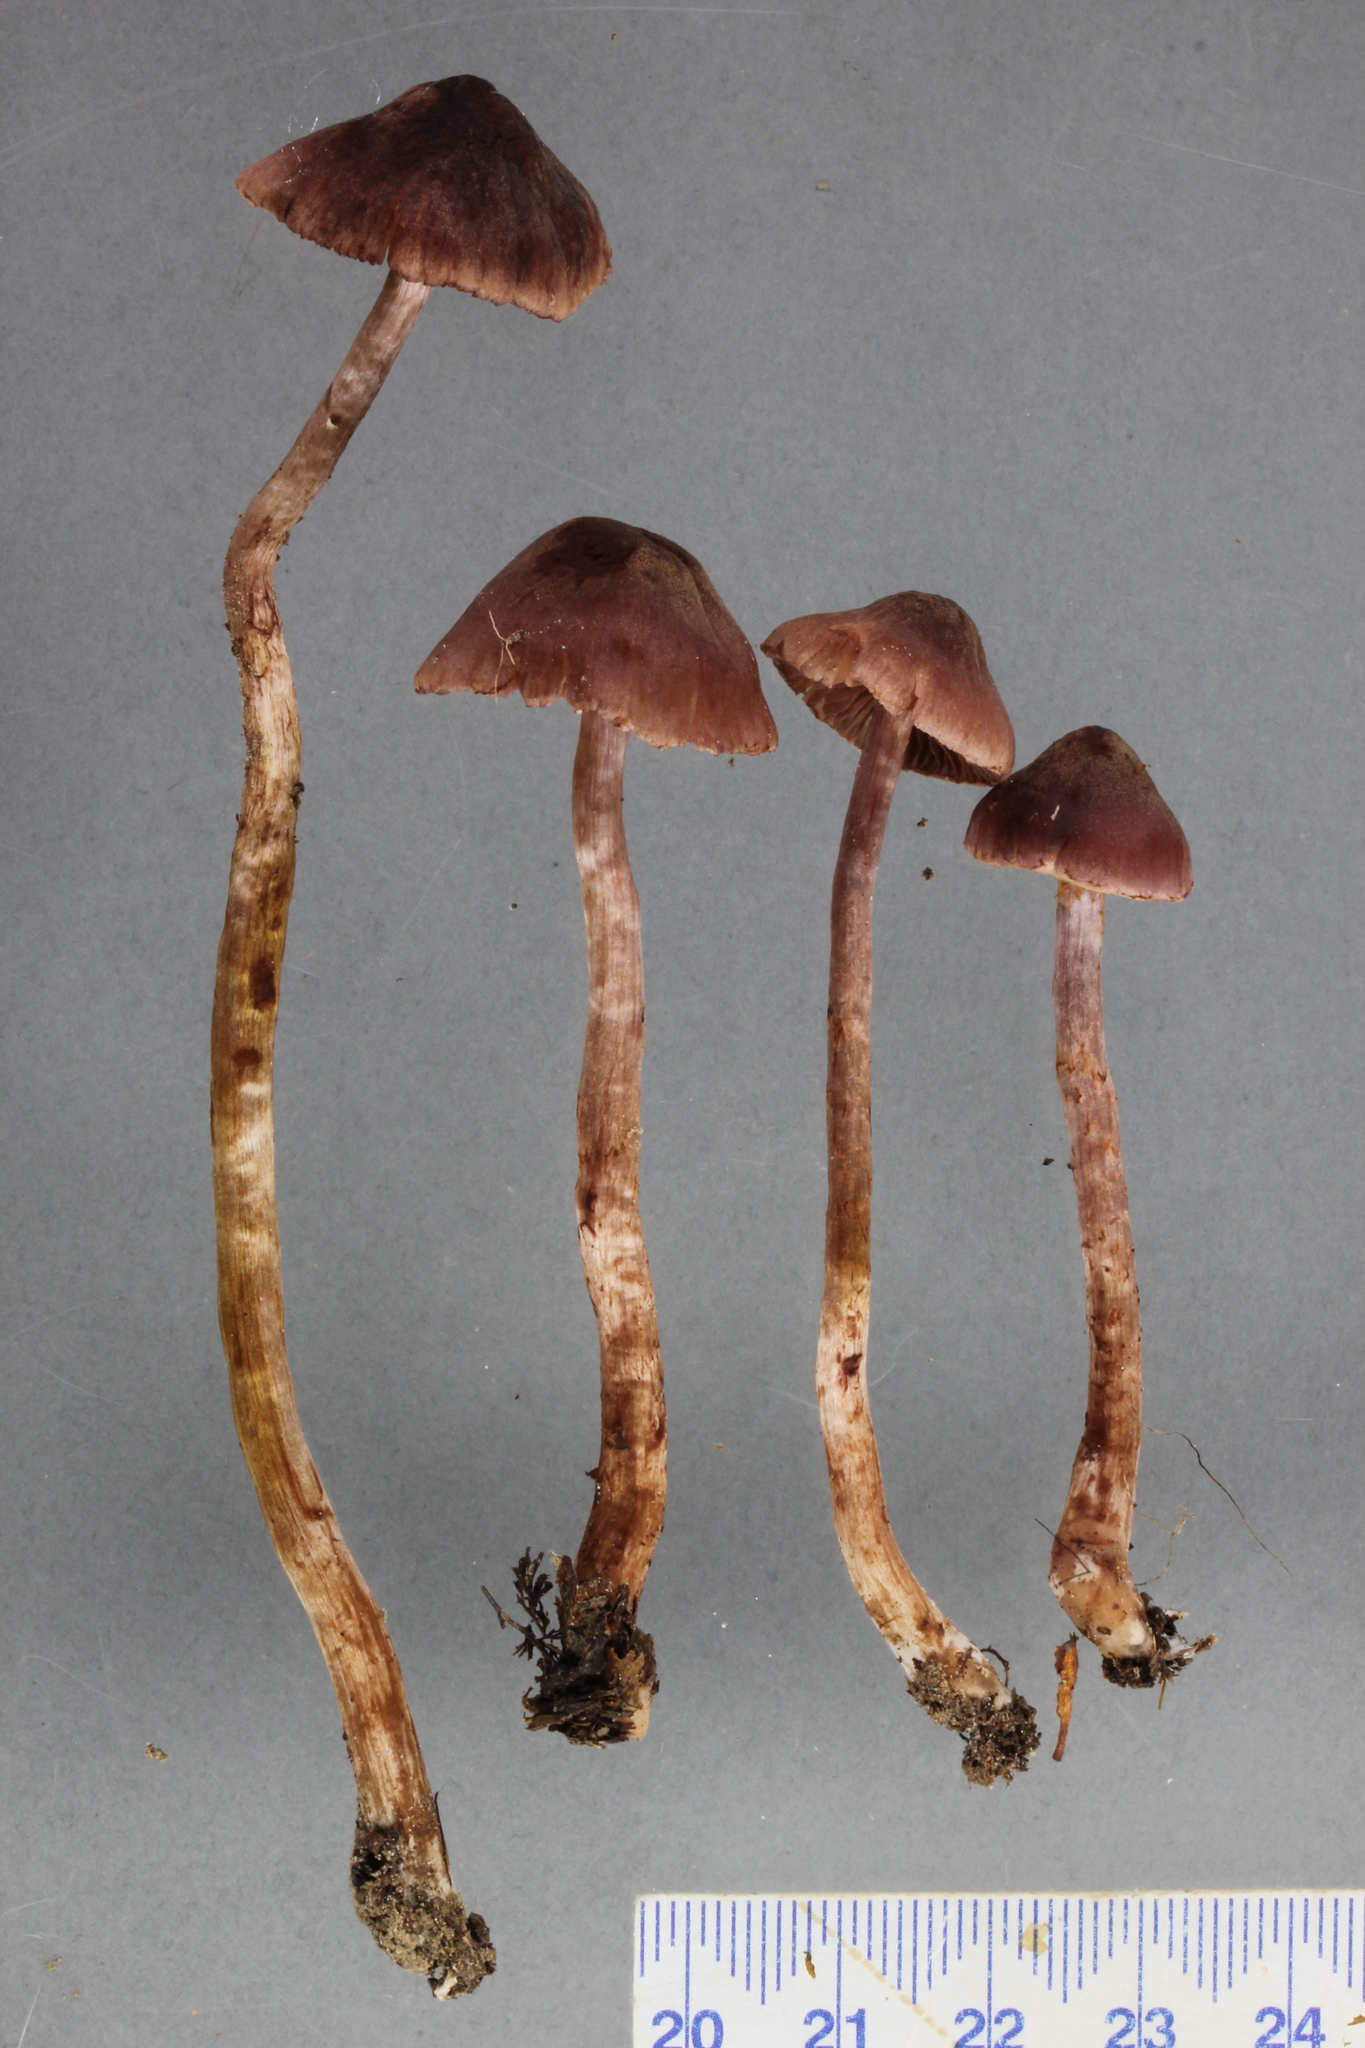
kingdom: Fungi
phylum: Basidiomycota
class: Agaricomycetes
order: Agaricales
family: Cortinariaceae
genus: Cortinarius
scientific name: Cortinarius sclerophyllorum
